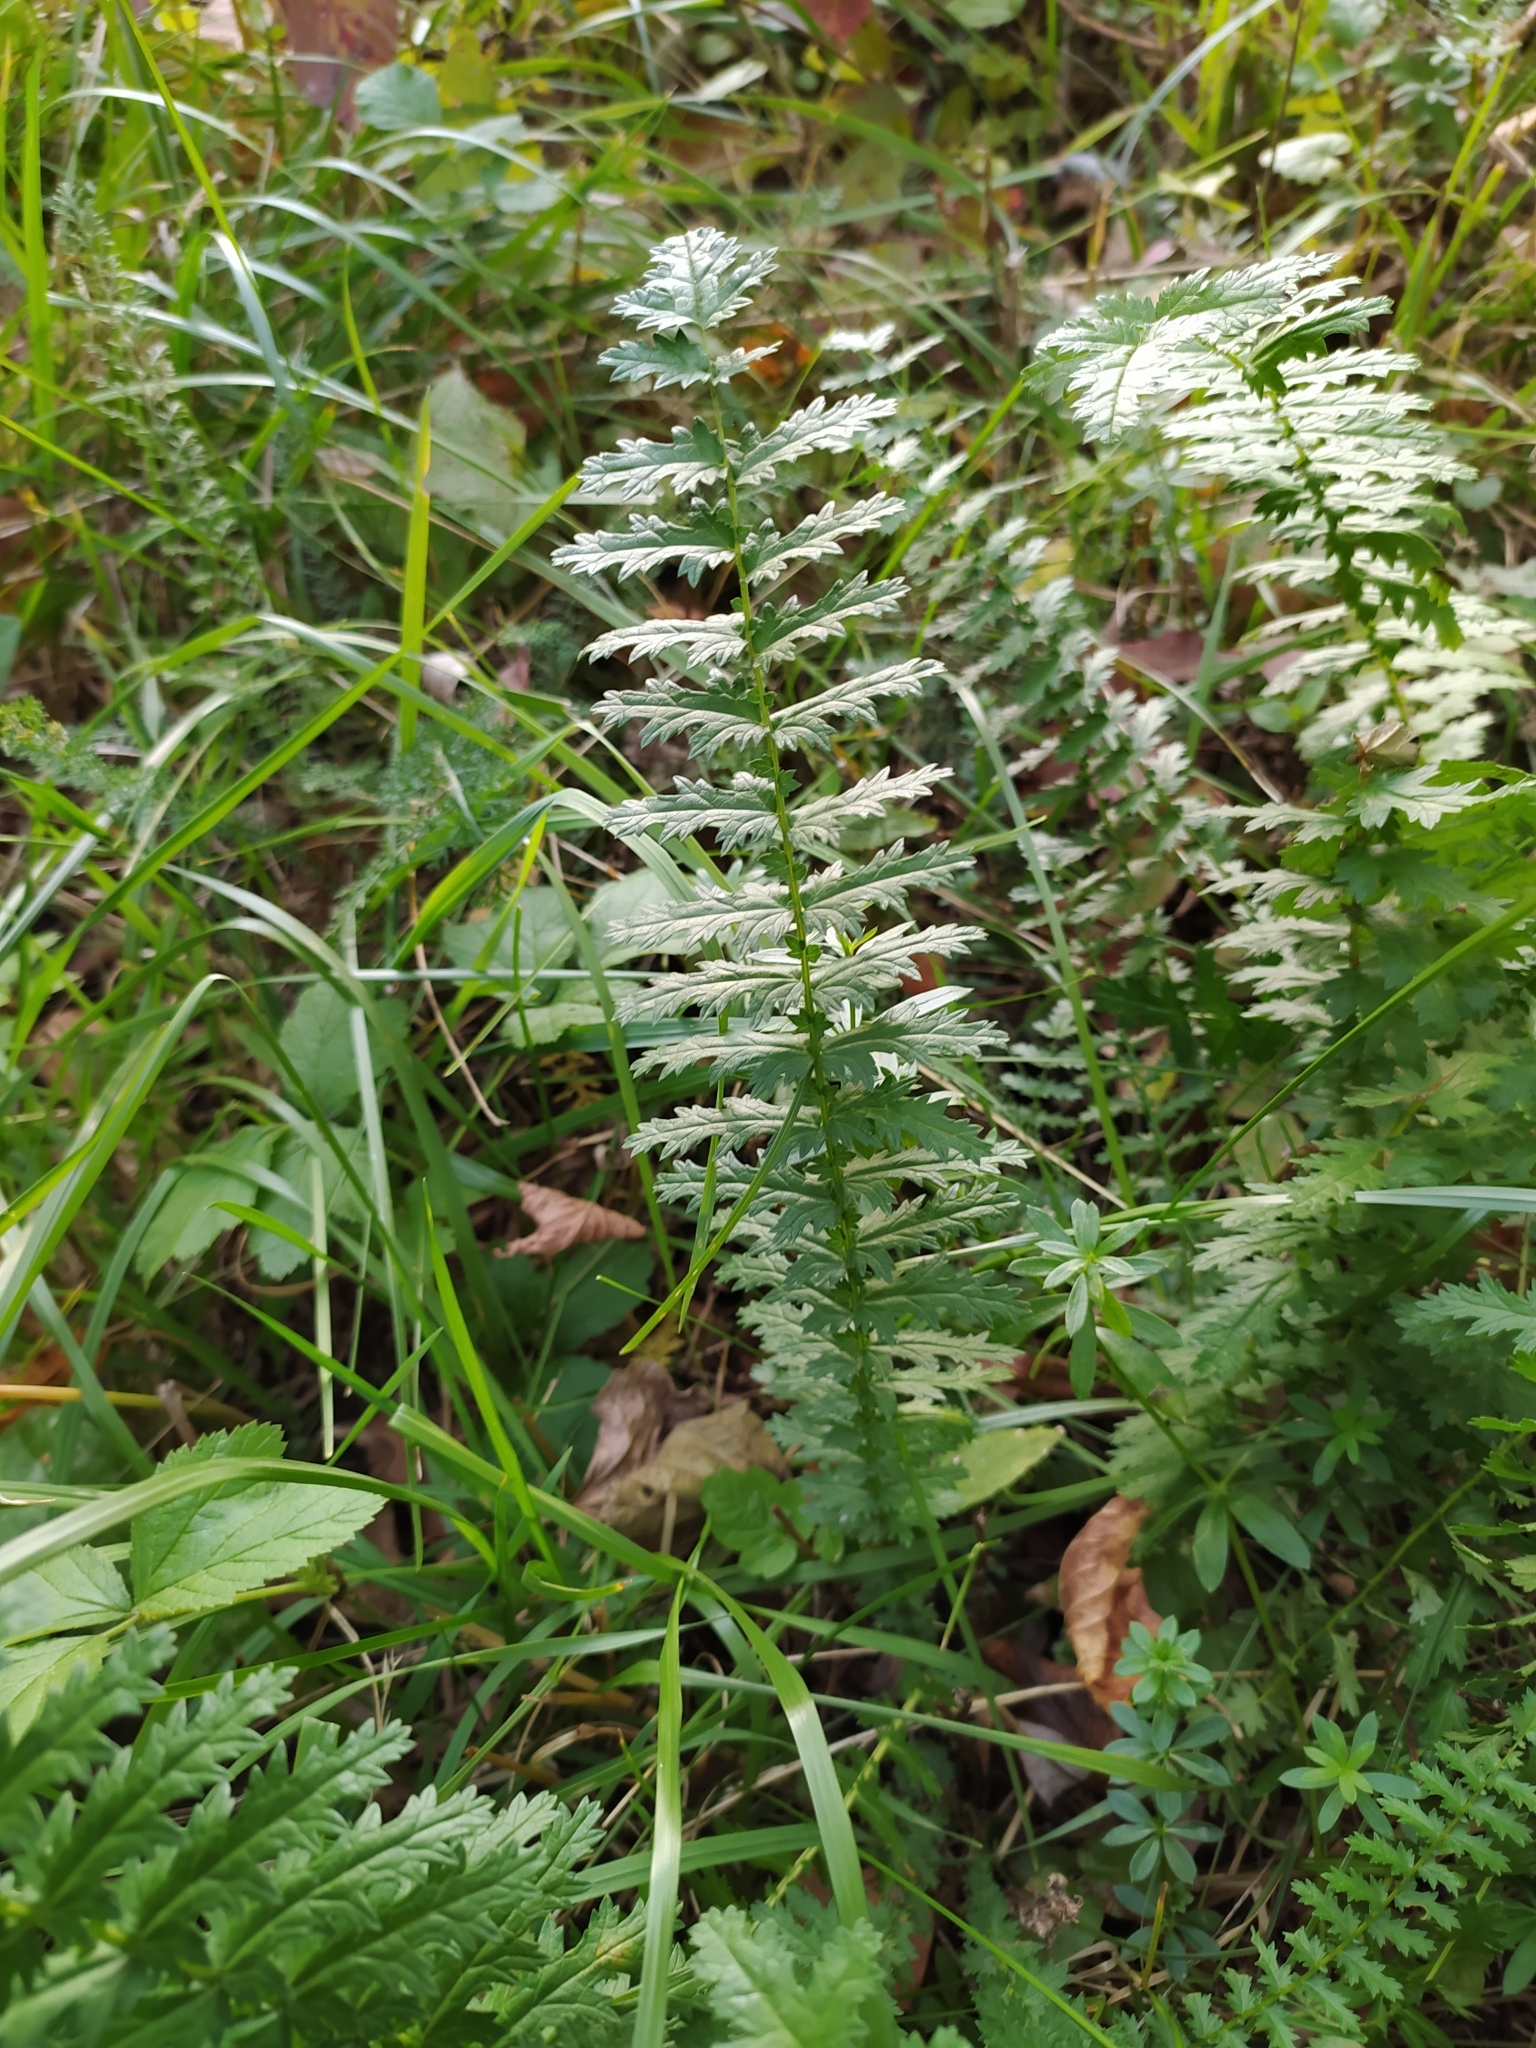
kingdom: Plantae
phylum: Tracheophyta
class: Magnoliopsida
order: Rosales
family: Rosaceae
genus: Filipendula
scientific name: Filipendula vulgaris
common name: Dropwort
